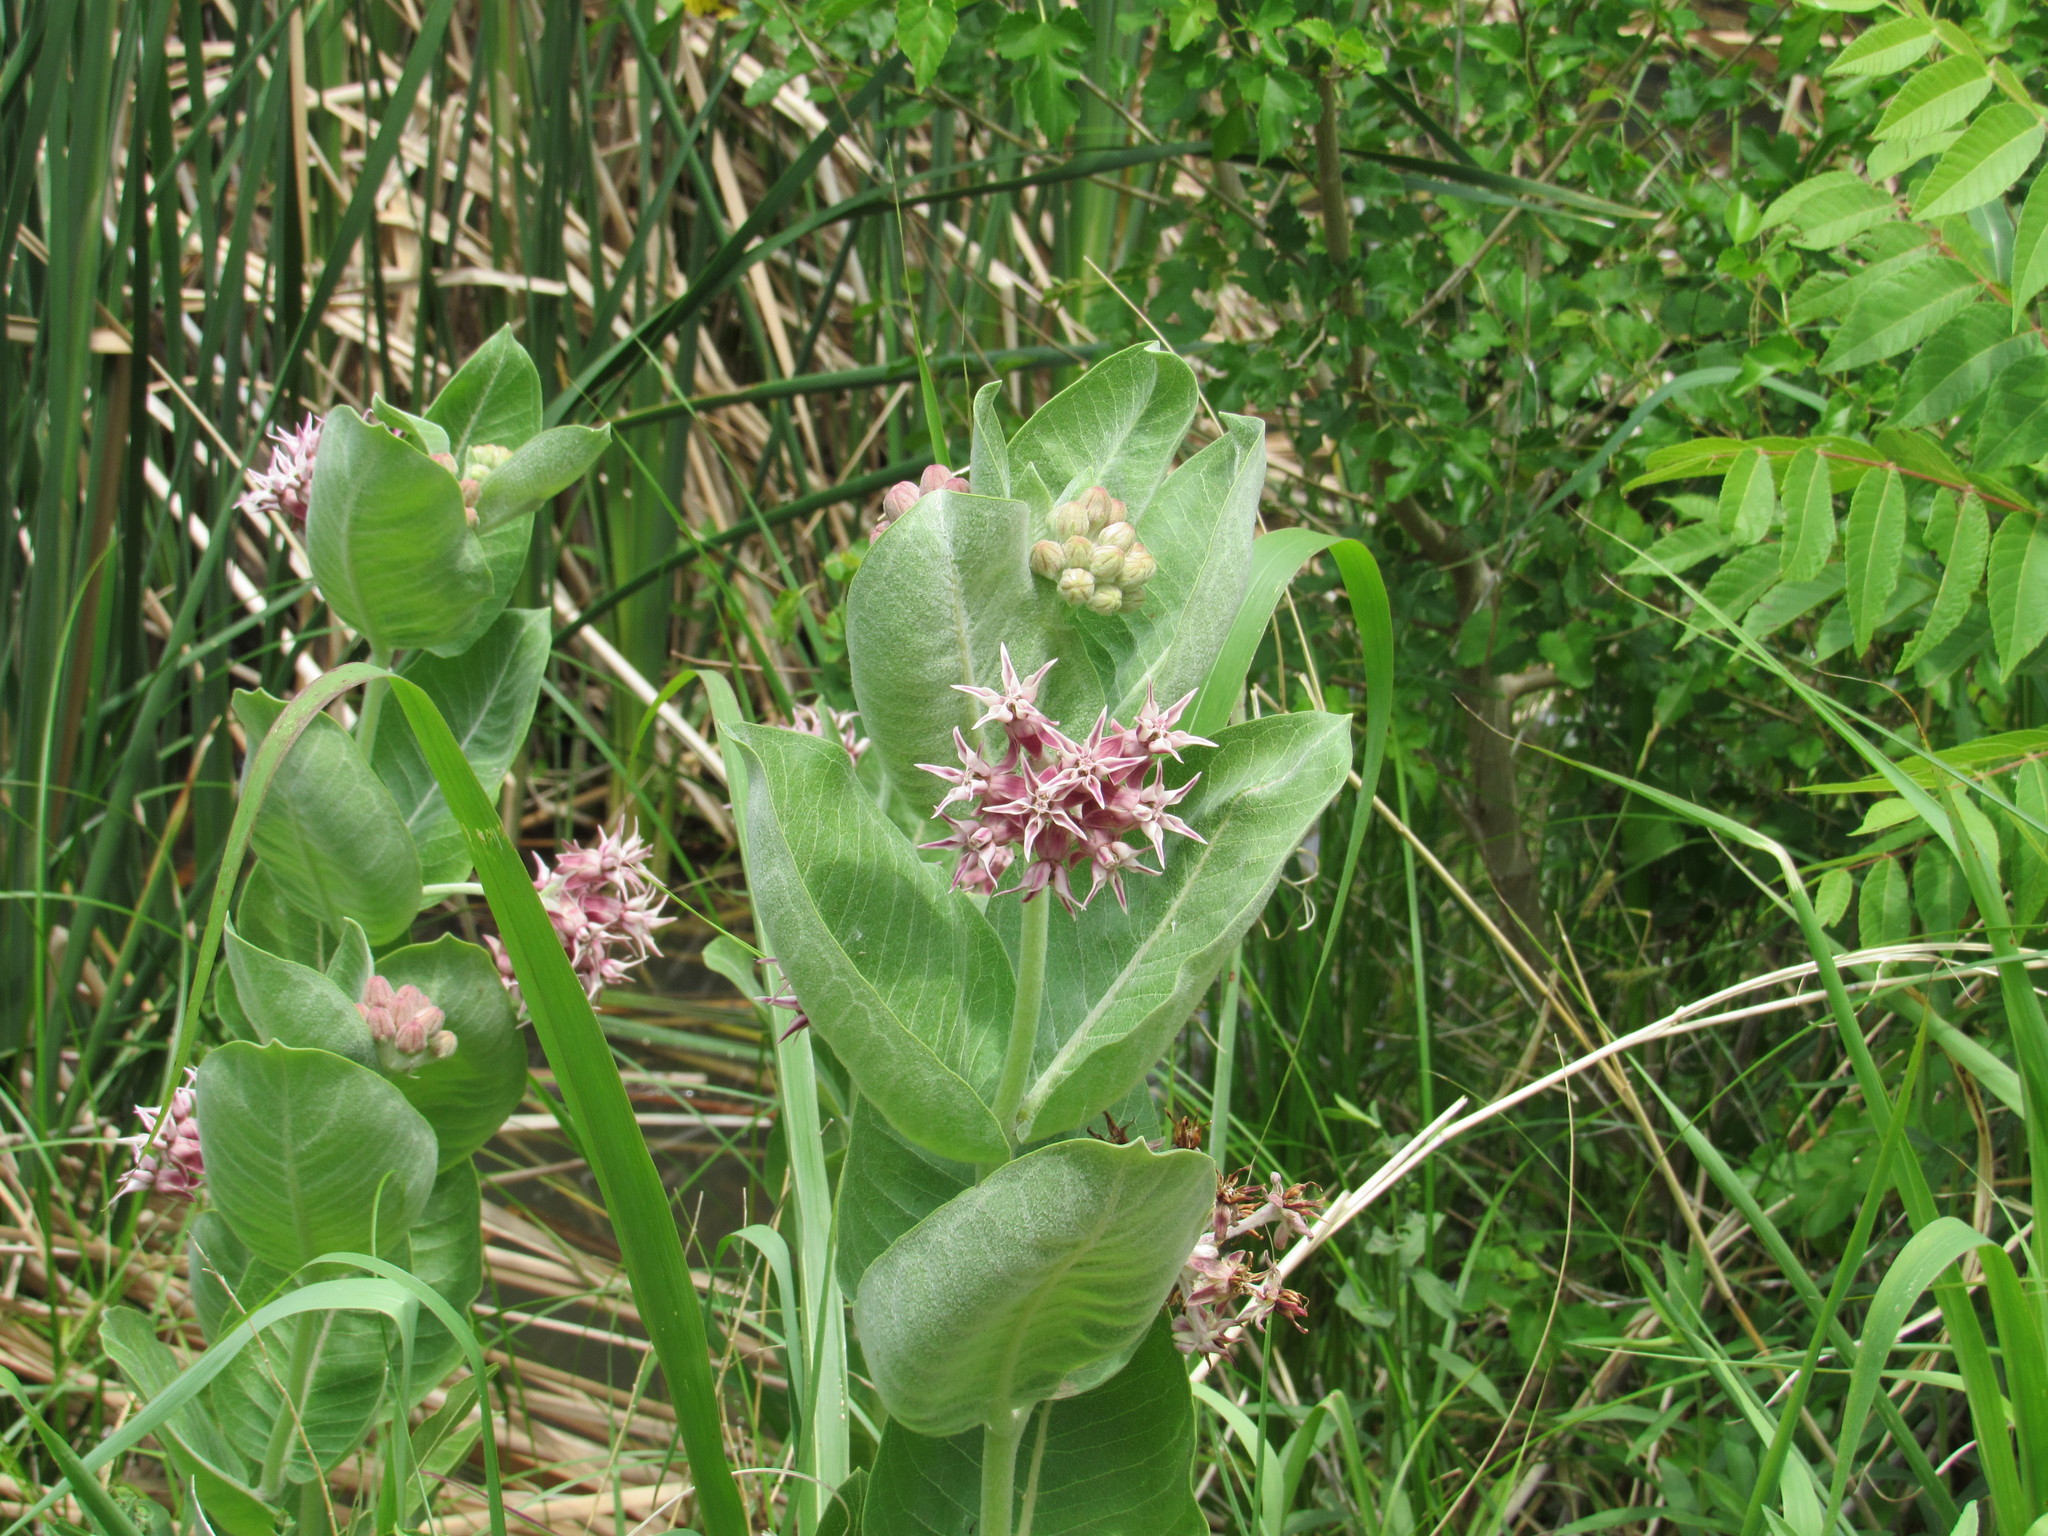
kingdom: Plantae
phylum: Tracheophyta
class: Magnoliopsida
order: Gentianales
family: Apocynaceae
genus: Asclepias
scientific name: Asclepias speciosa
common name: Showy milkweed
